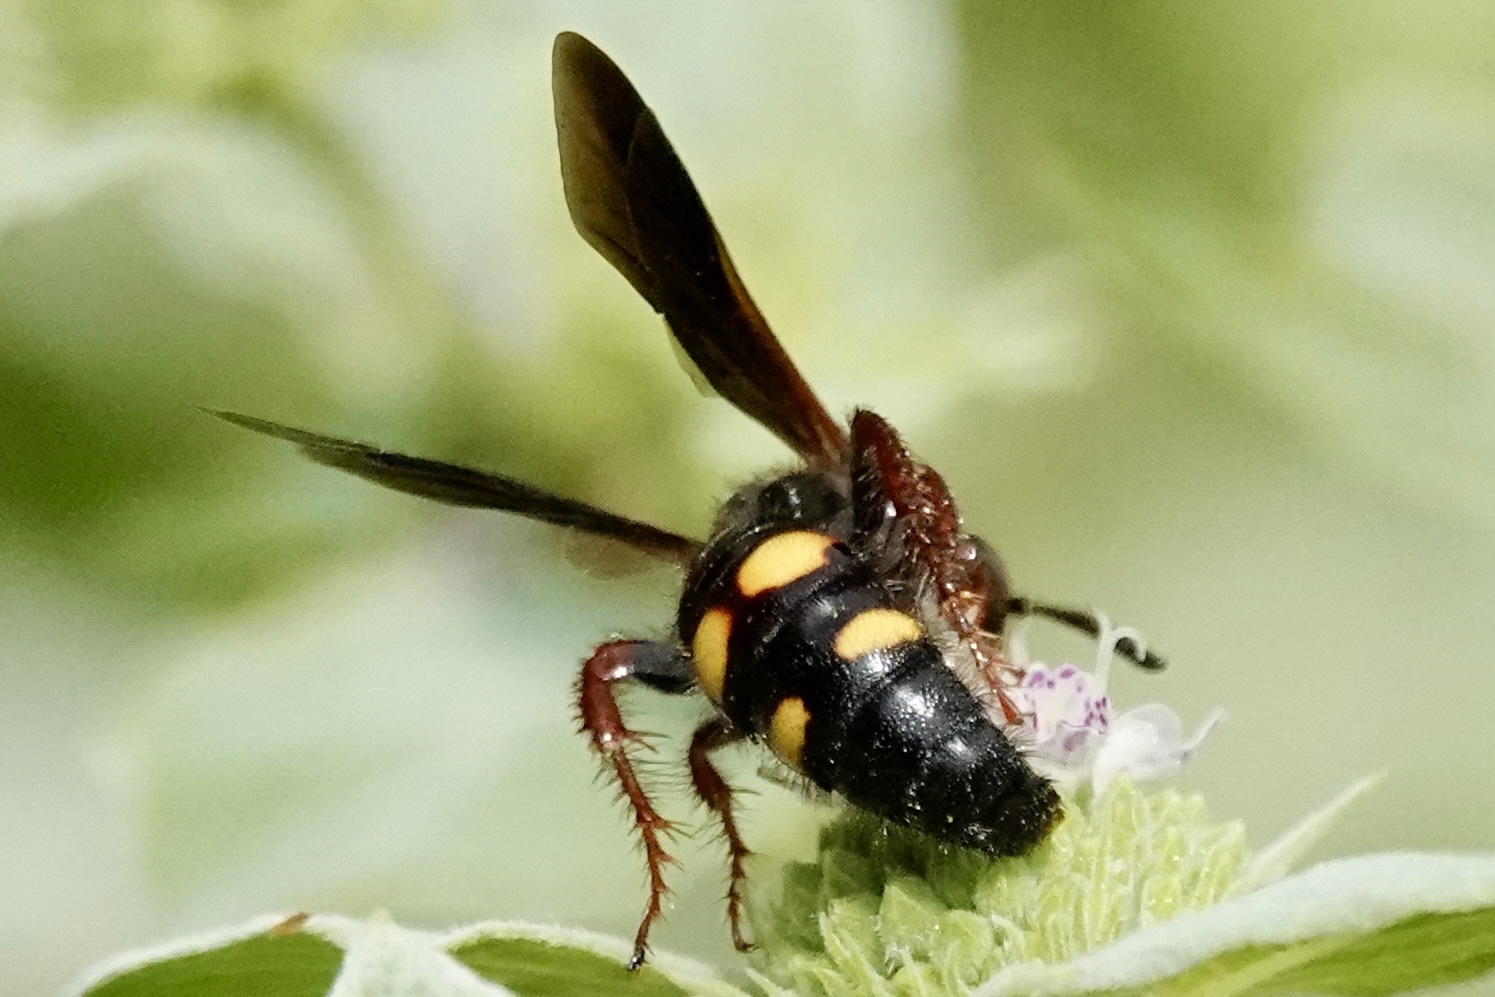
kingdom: Animalia
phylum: Arthropoda
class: Insecta
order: Hymenoptera
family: Scoliidae
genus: Scolia
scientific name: Scolia nobilitata
